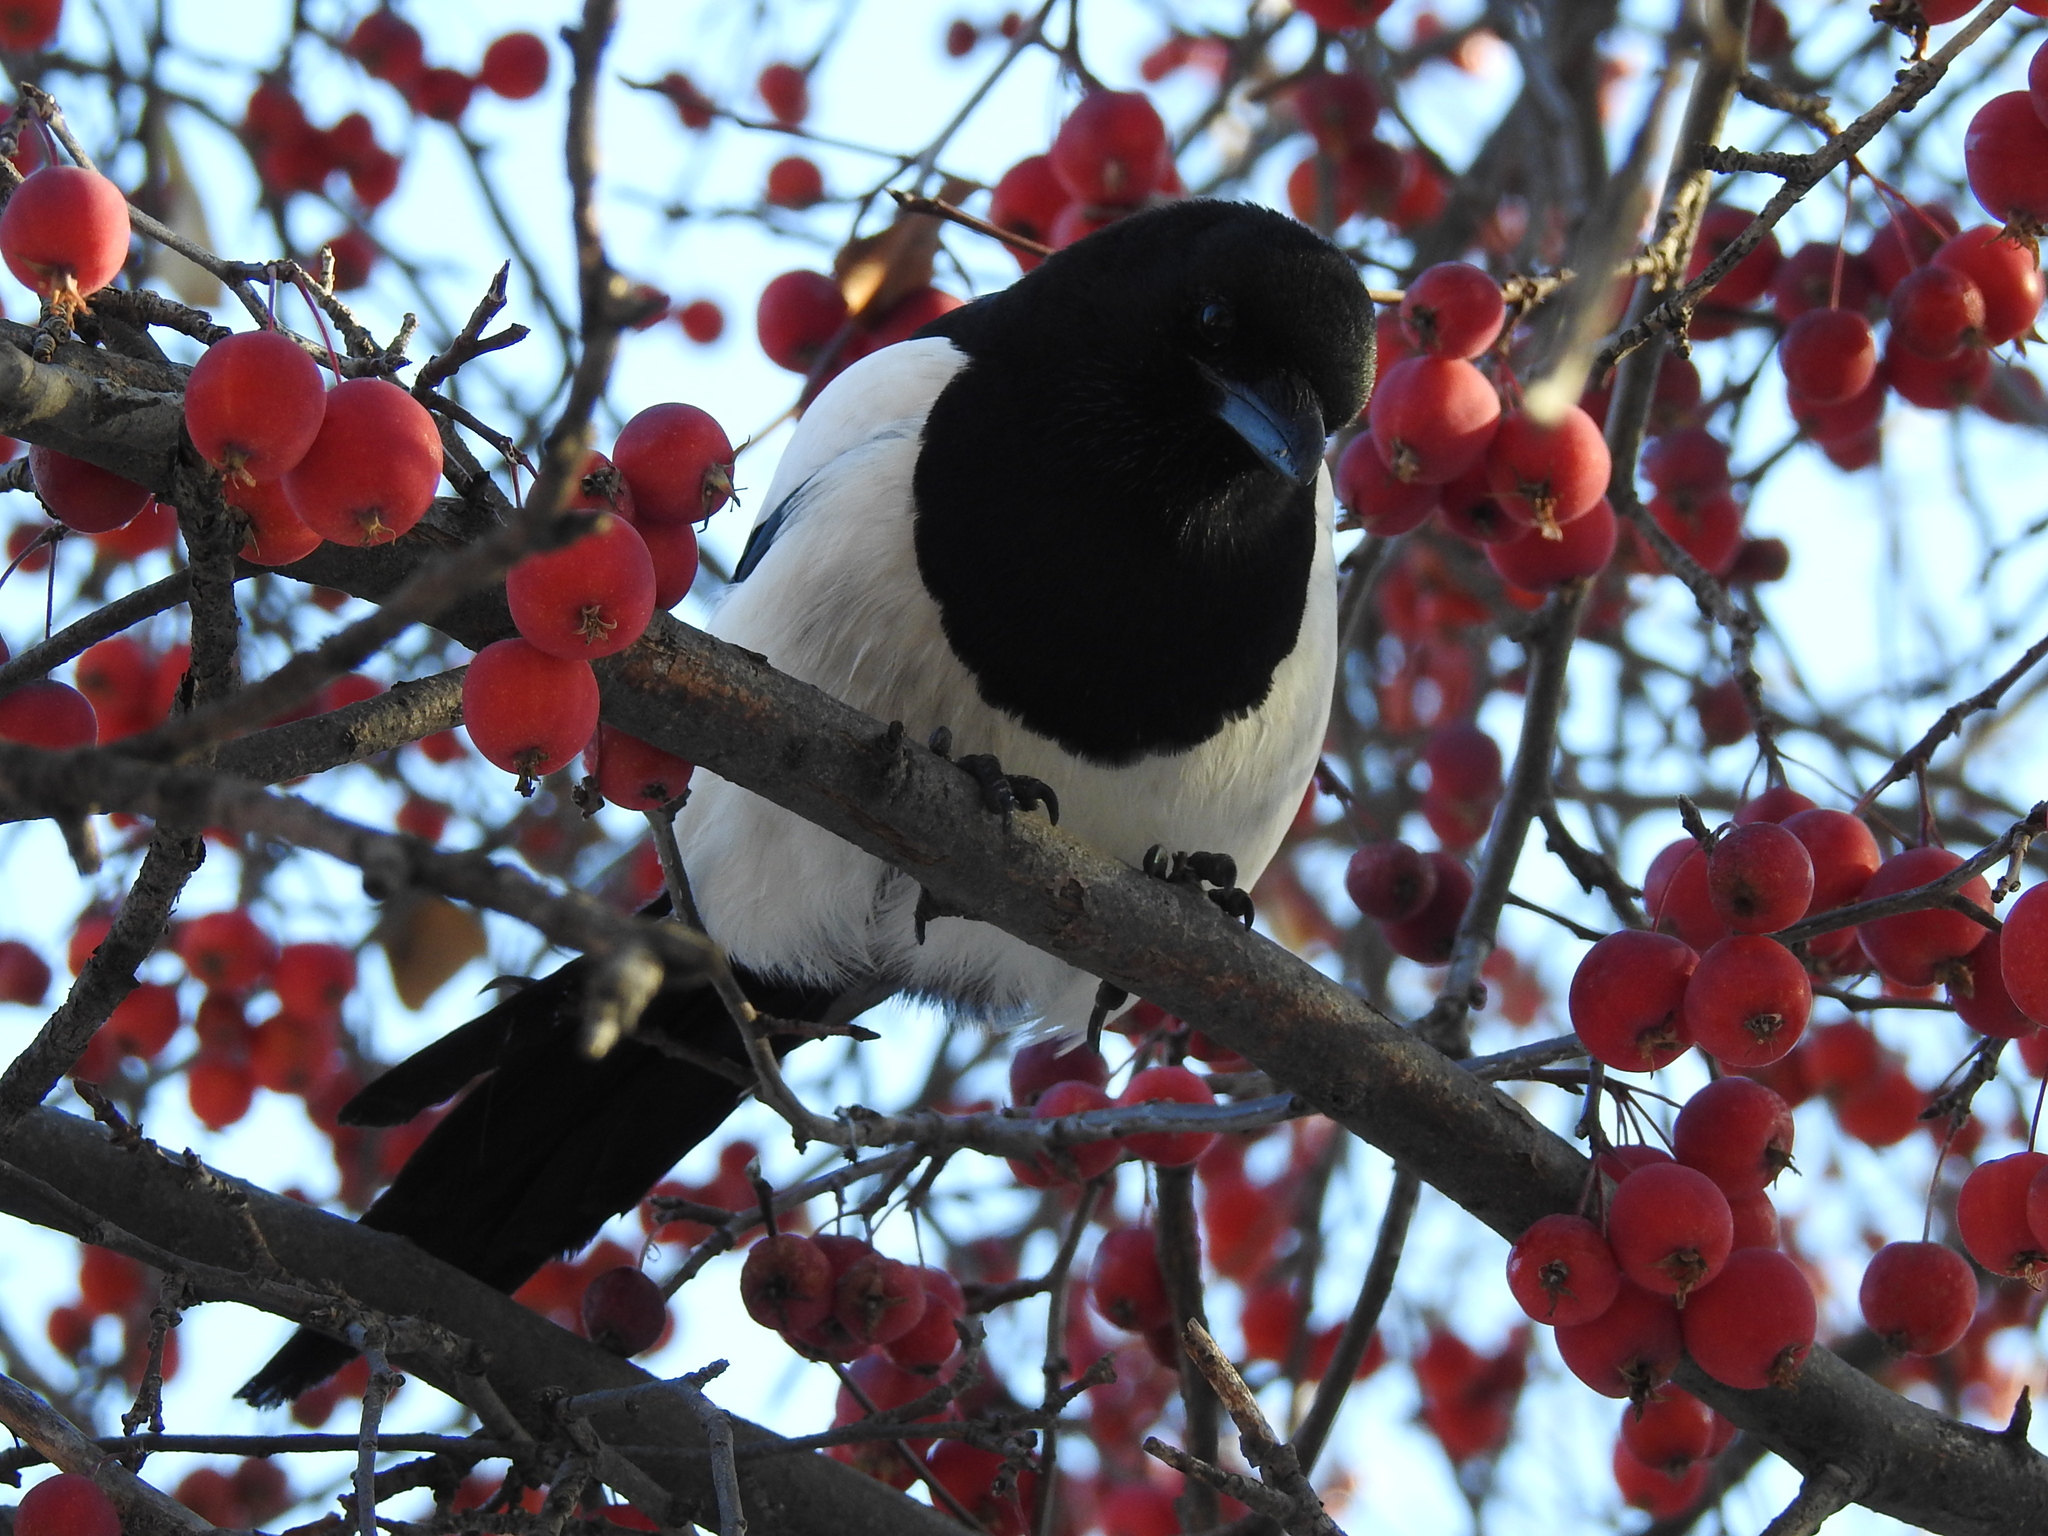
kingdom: Animalia
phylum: Chordata
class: Aves
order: Passeriformes
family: Corvidae
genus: Pica
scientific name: Pica pica
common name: Eurasian magpie
